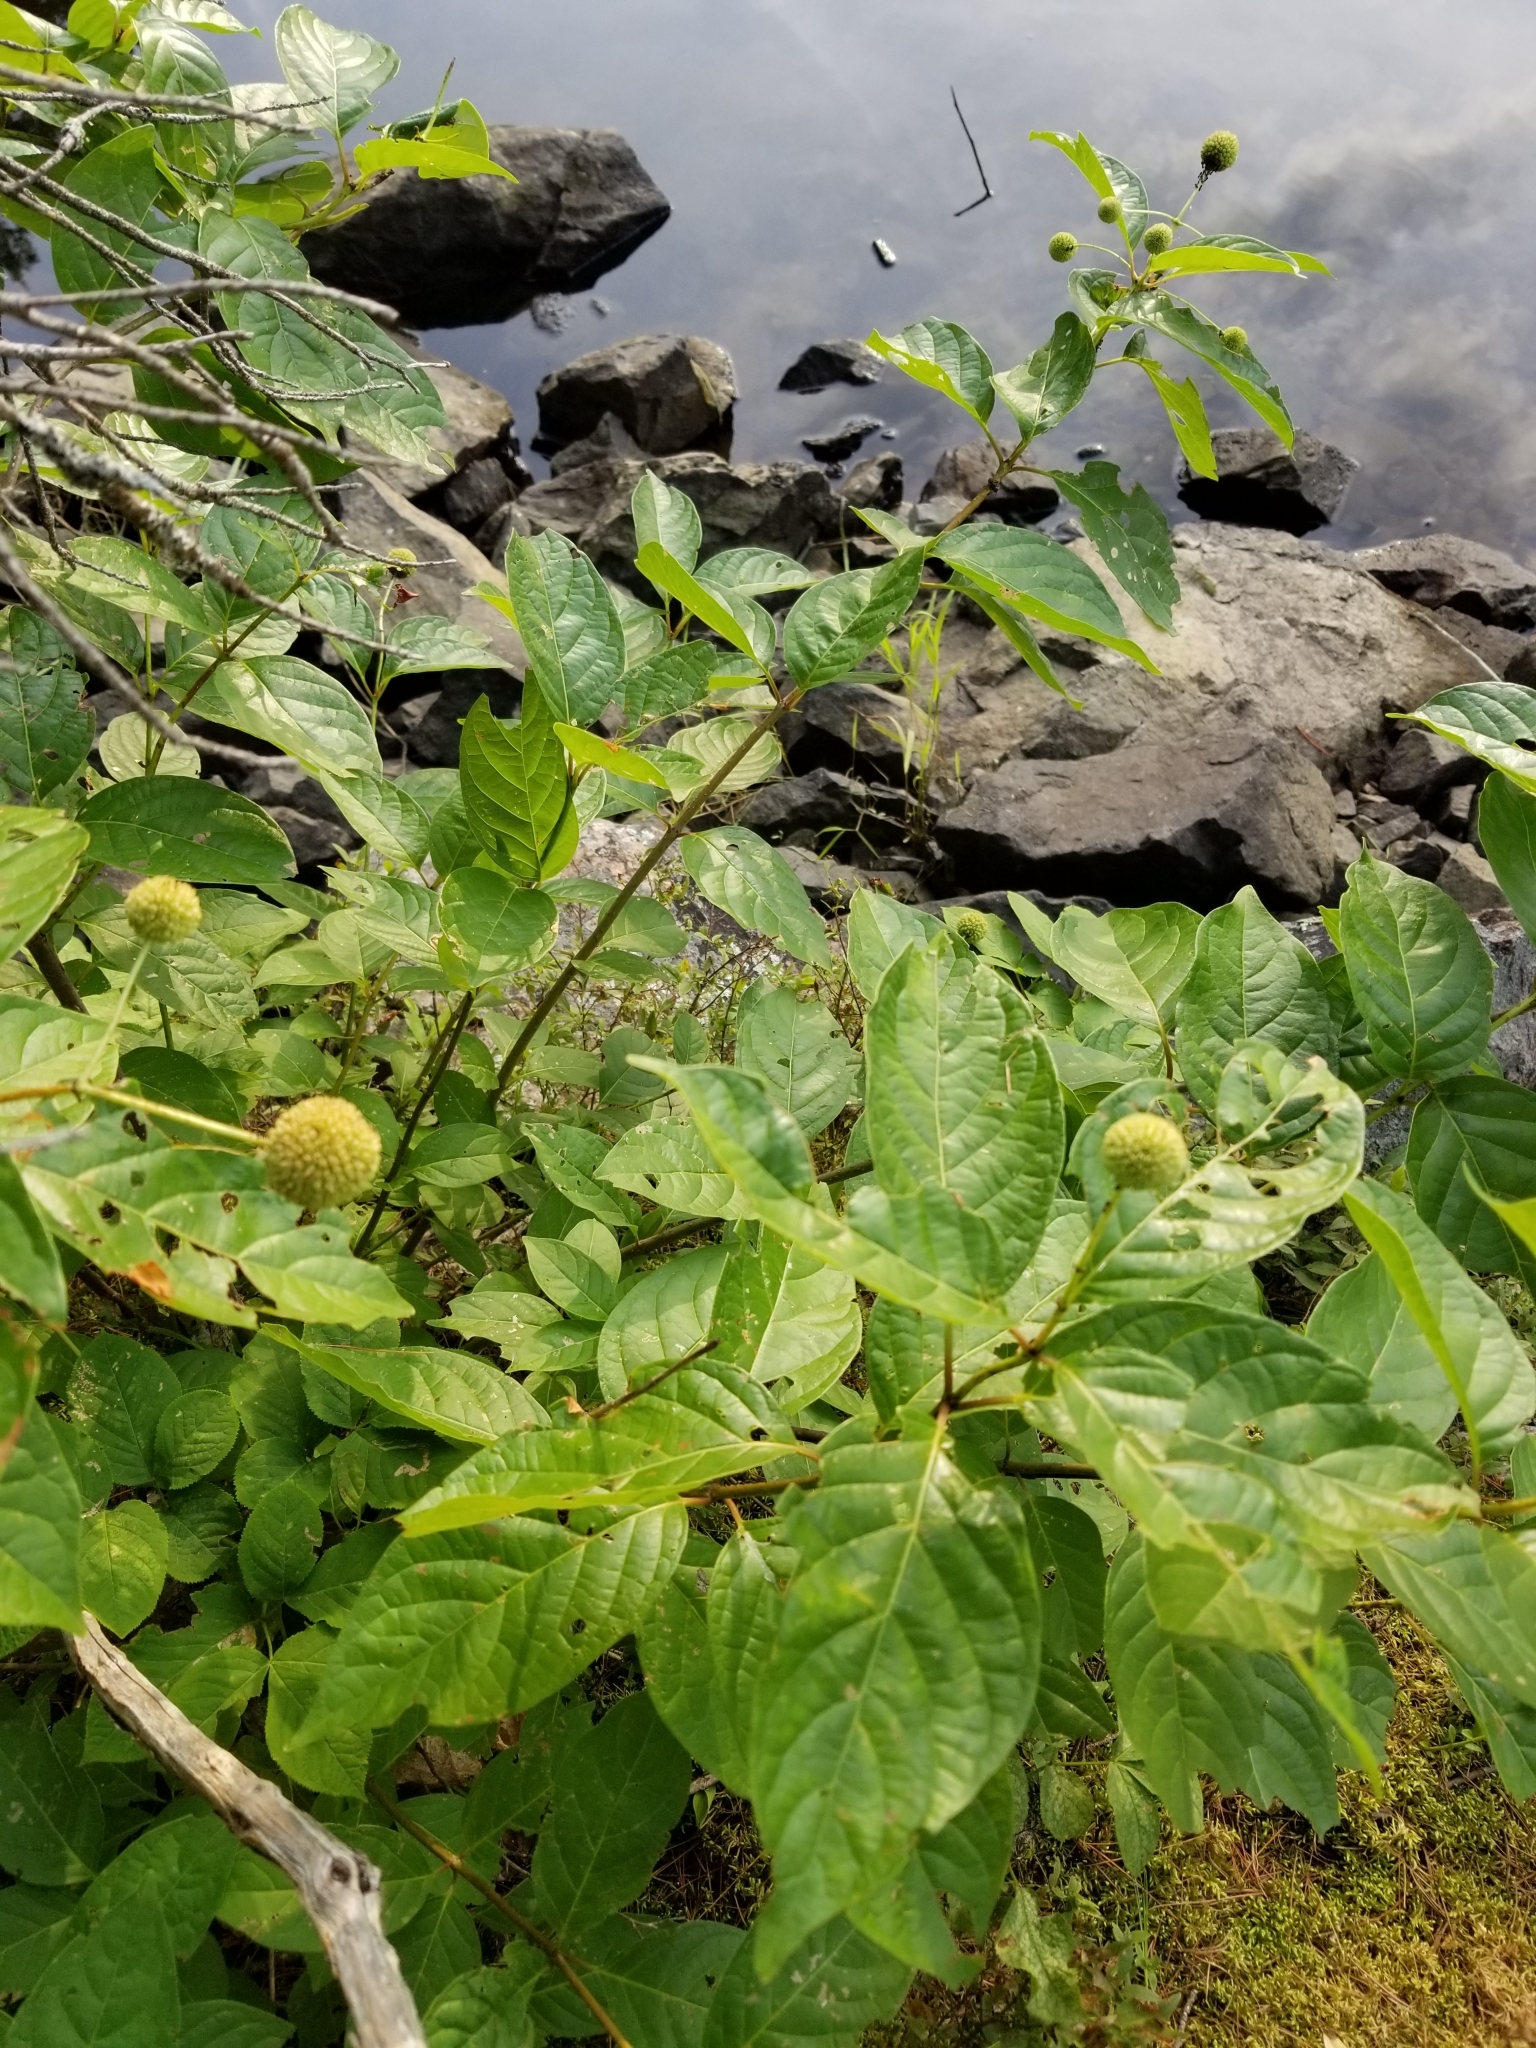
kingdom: Plantae
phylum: Tracheophyta
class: Magnoliopsida
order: Gentianales
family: Rubiaceae
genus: Cephalanthus
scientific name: Cephalanthus occidentalis
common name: Button-willow
